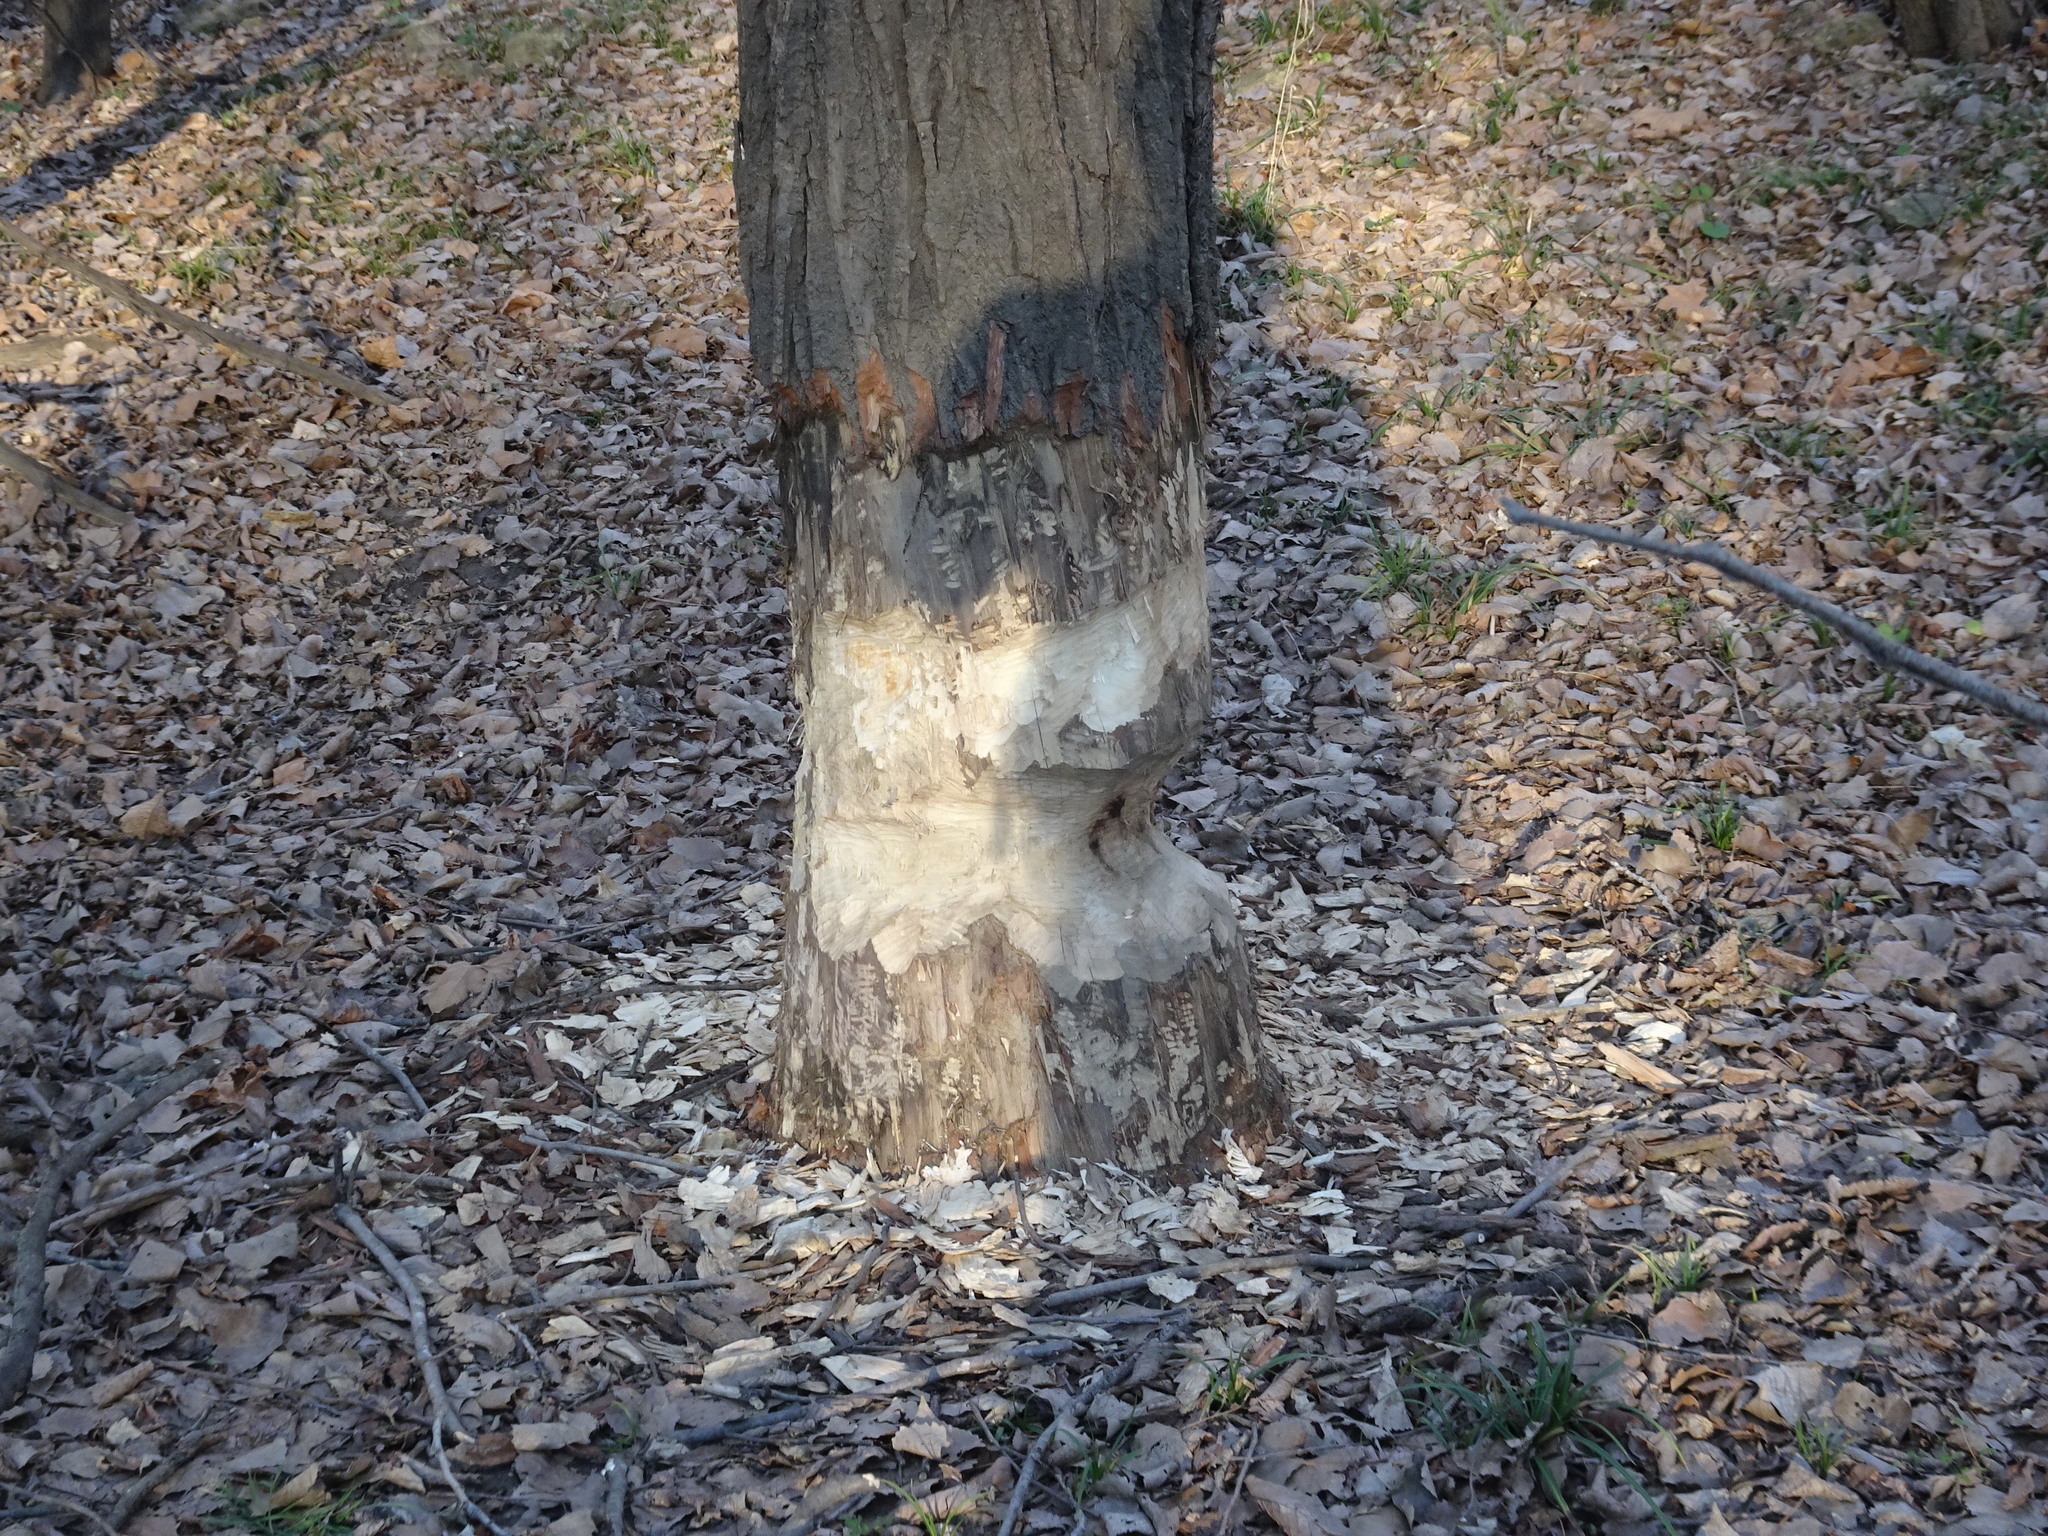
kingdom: Animalia
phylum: Chordata
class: Mammalia
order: Rodentia
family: Castoridae
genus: Castor
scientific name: Castor canadensis
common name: American beaver
